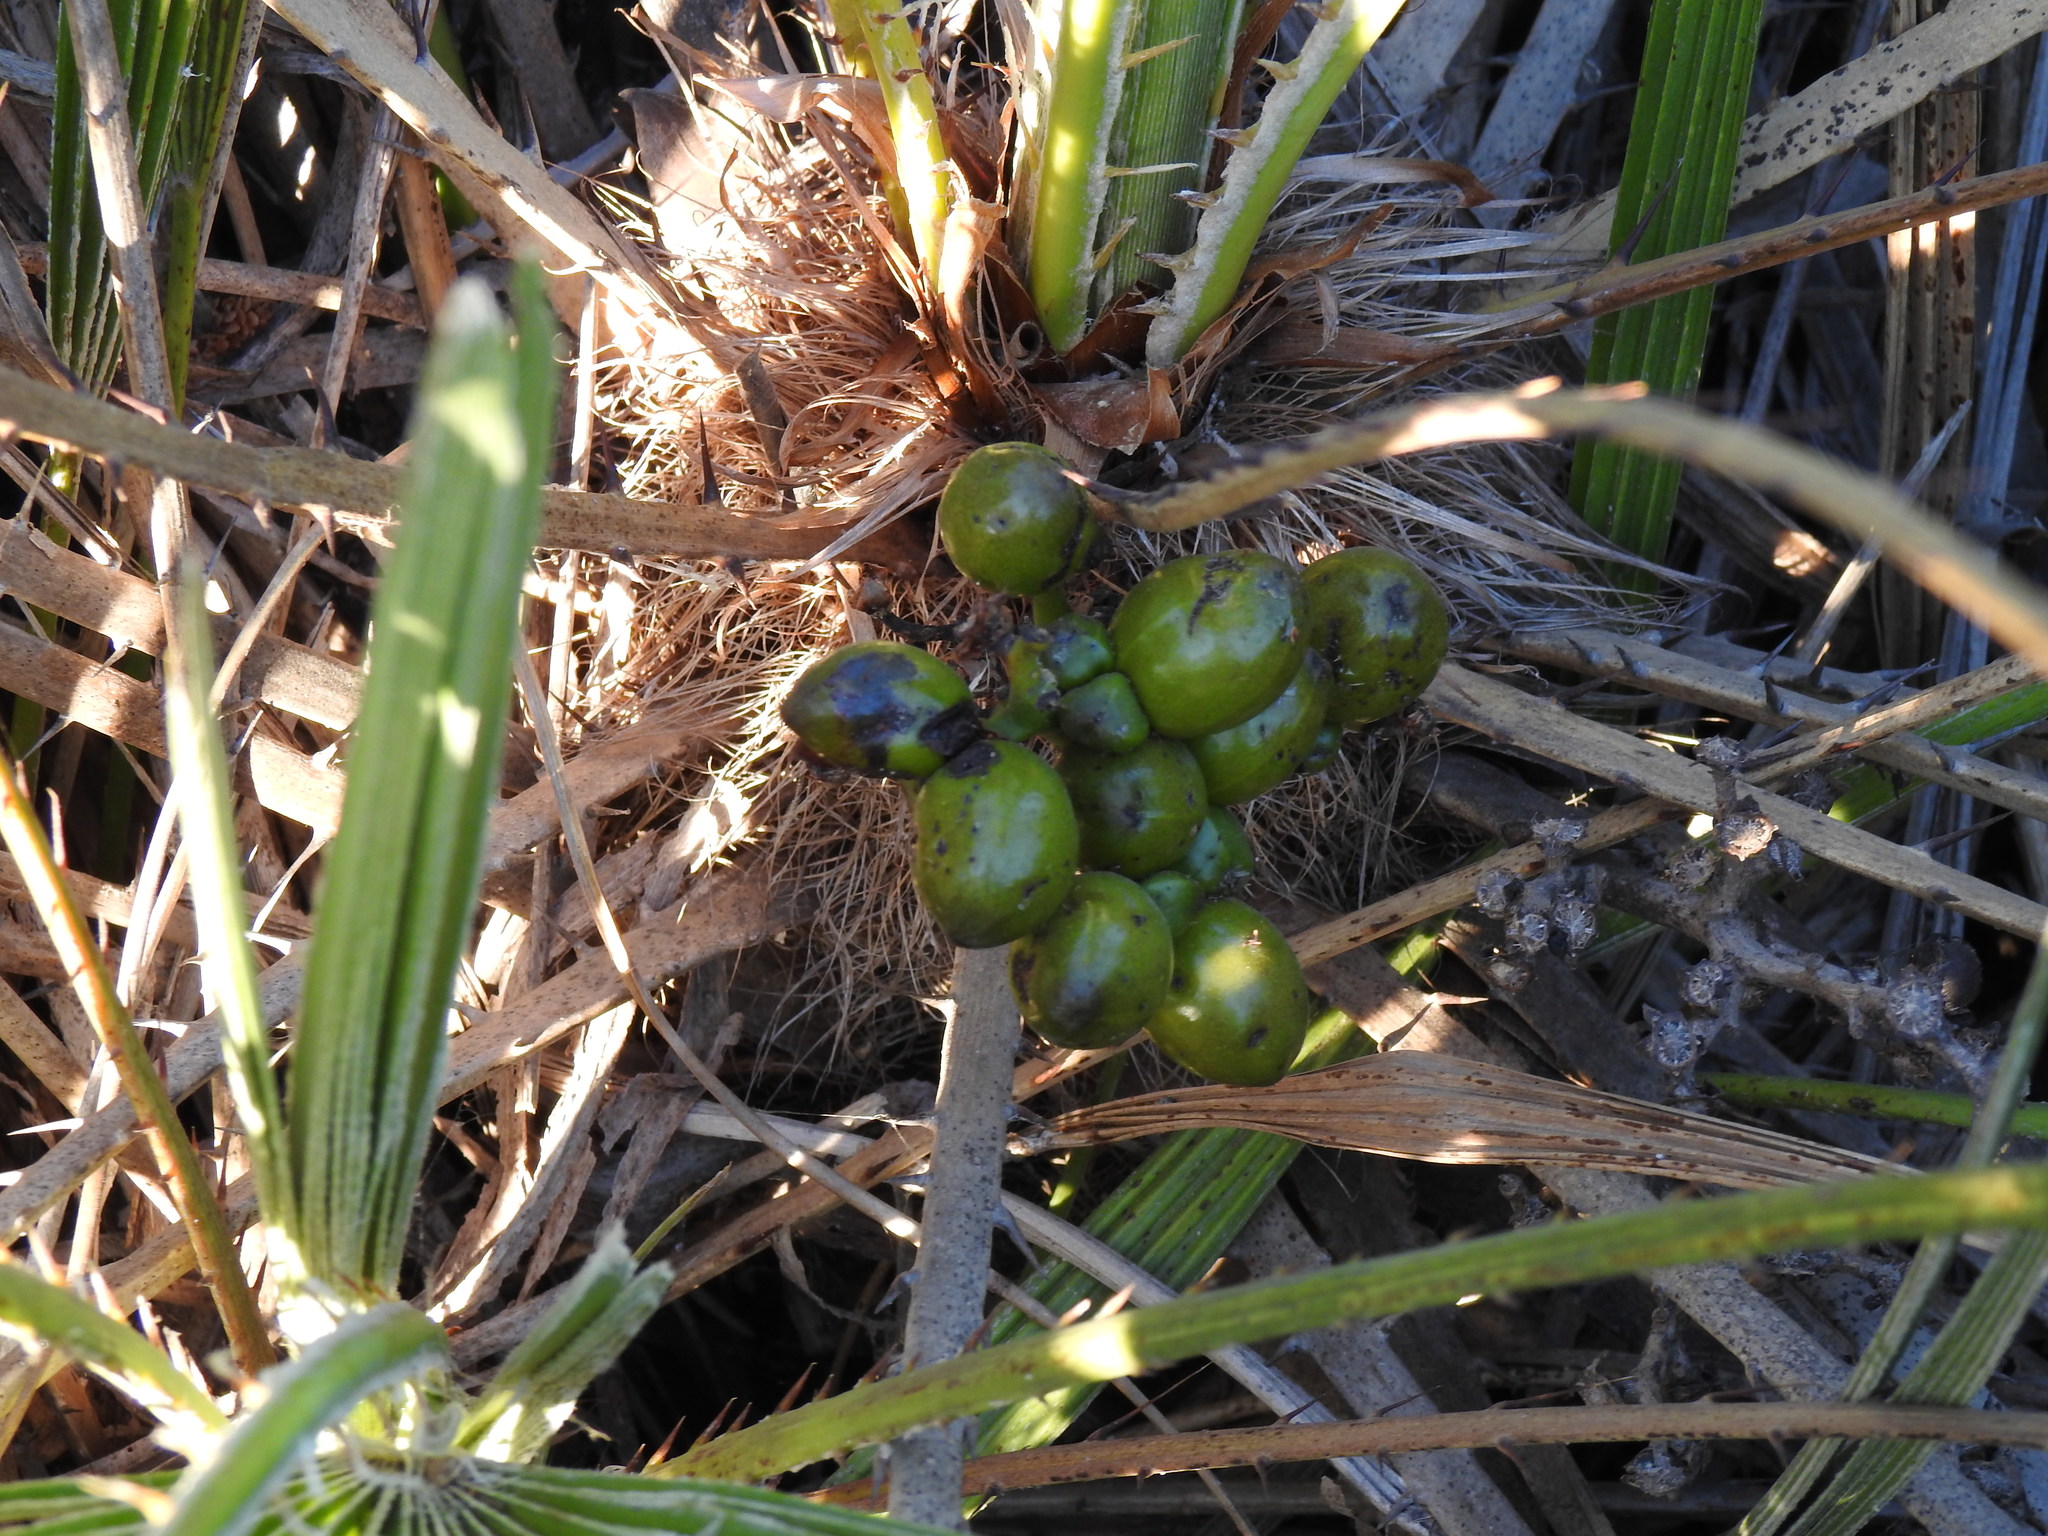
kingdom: Plantae
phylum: Tracheophyta
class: Liliopsida
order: Arecales
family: Arecaceae
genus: Chamaerops
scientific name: Chamaerops humilis
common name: Dwarf fan palm
